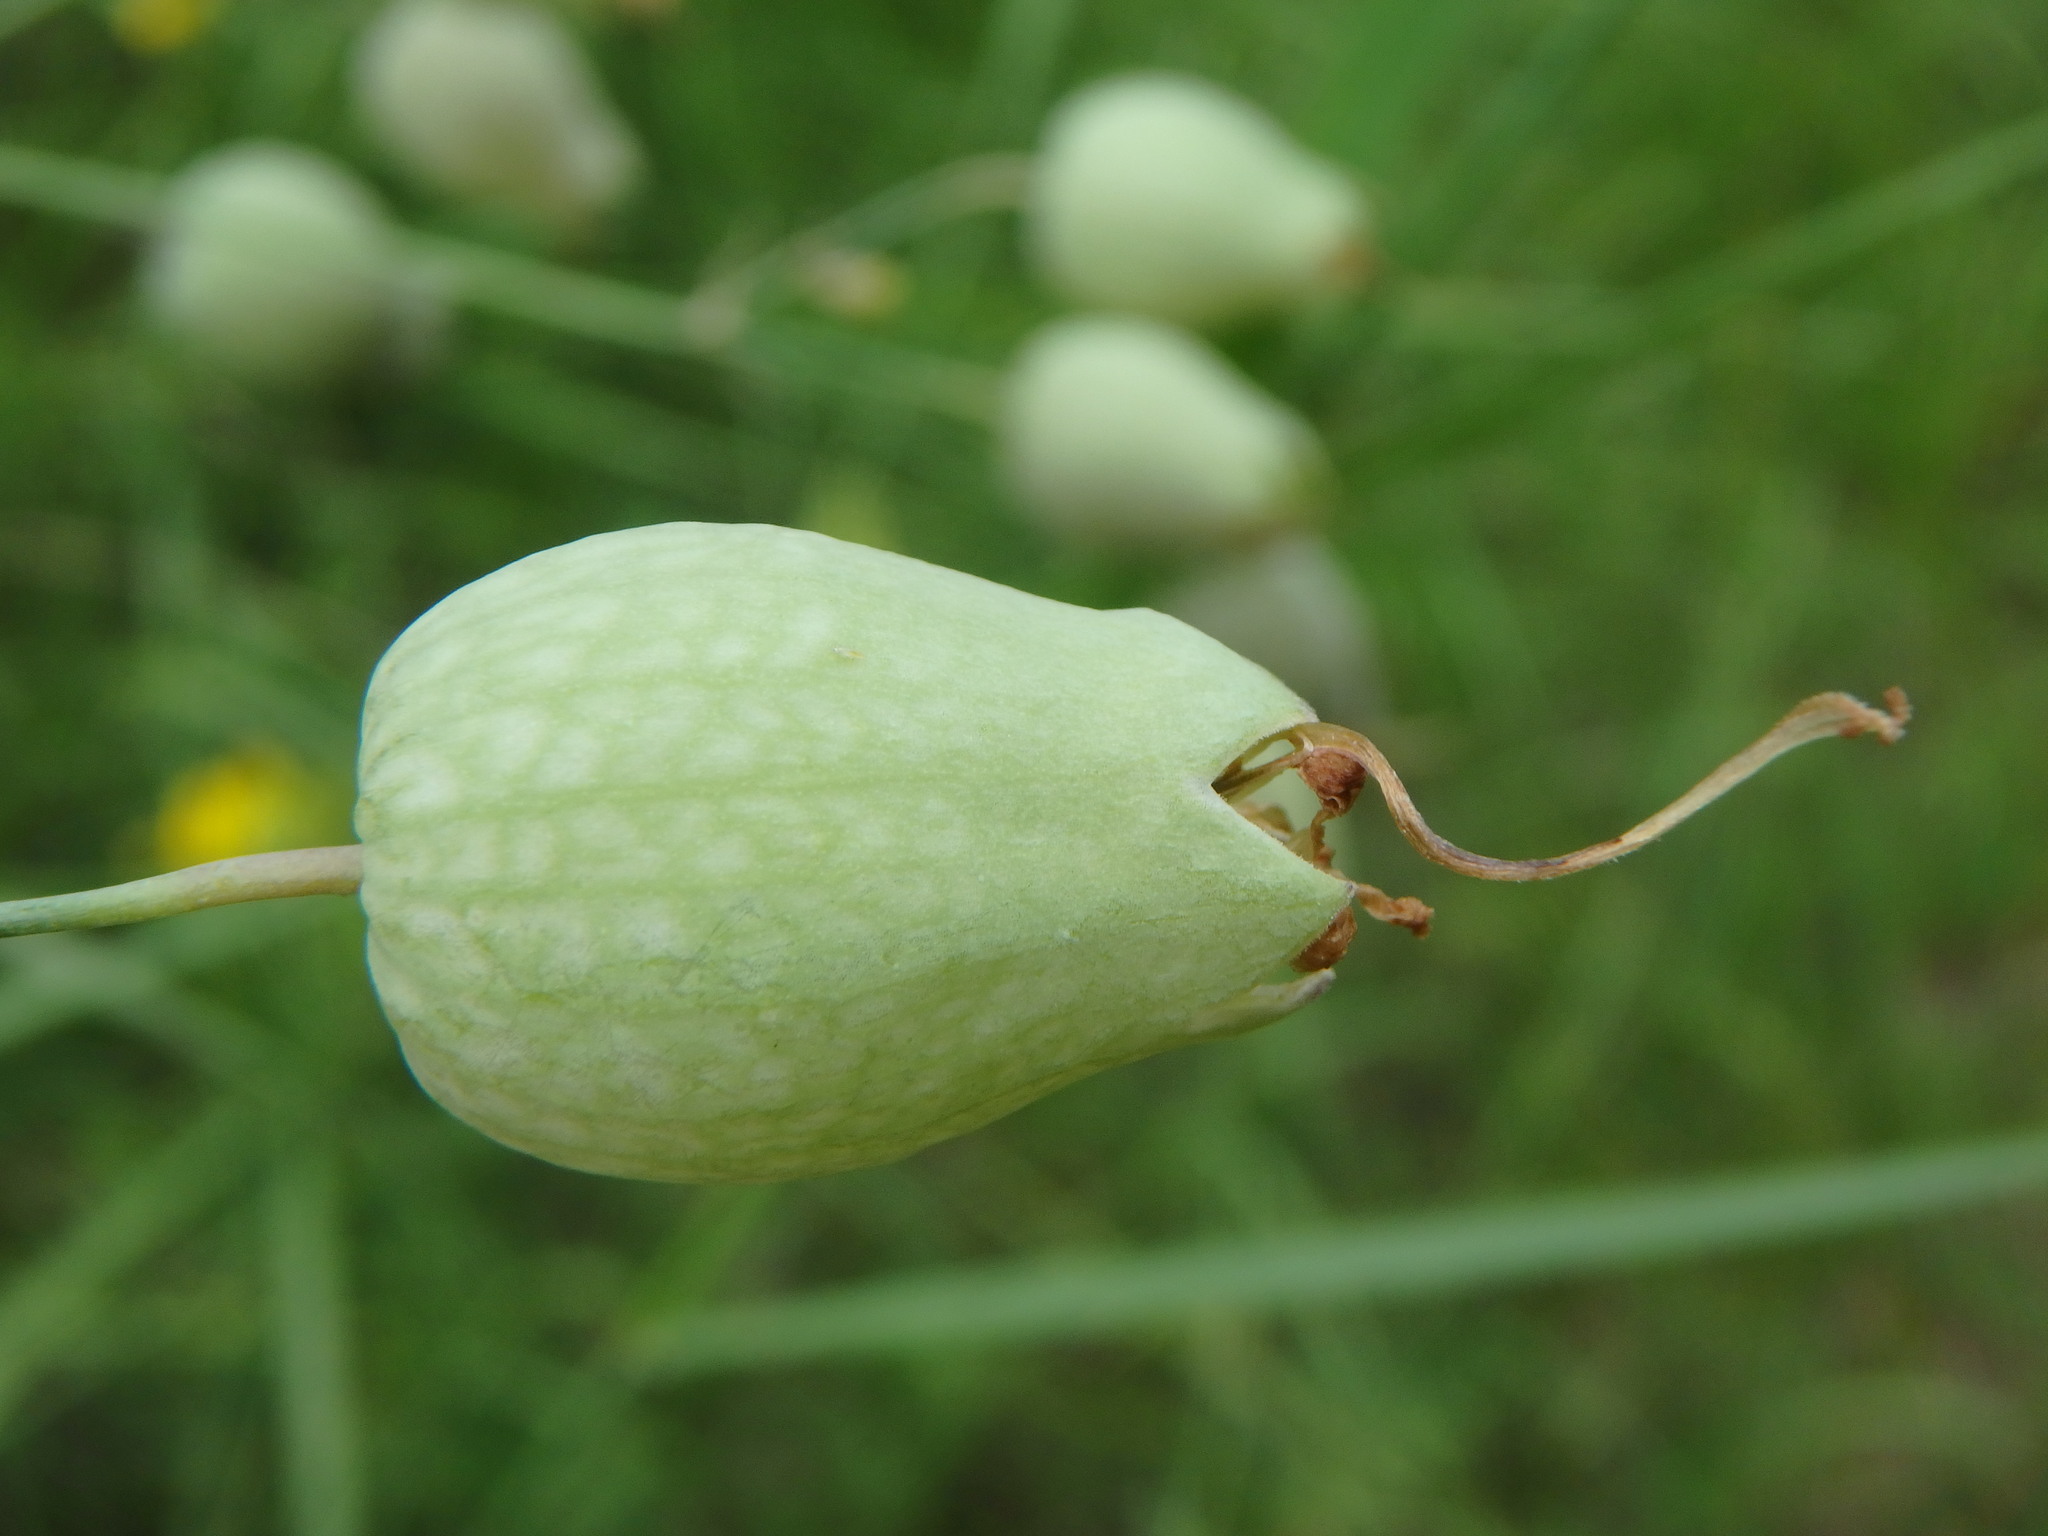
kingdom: Plantae
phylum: Tracheophyta
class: Magnoliopsida
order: Caryophyllales
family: Caryophyllaceae
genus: Silene
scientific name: Silene vulgaris
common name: Bladder campion
